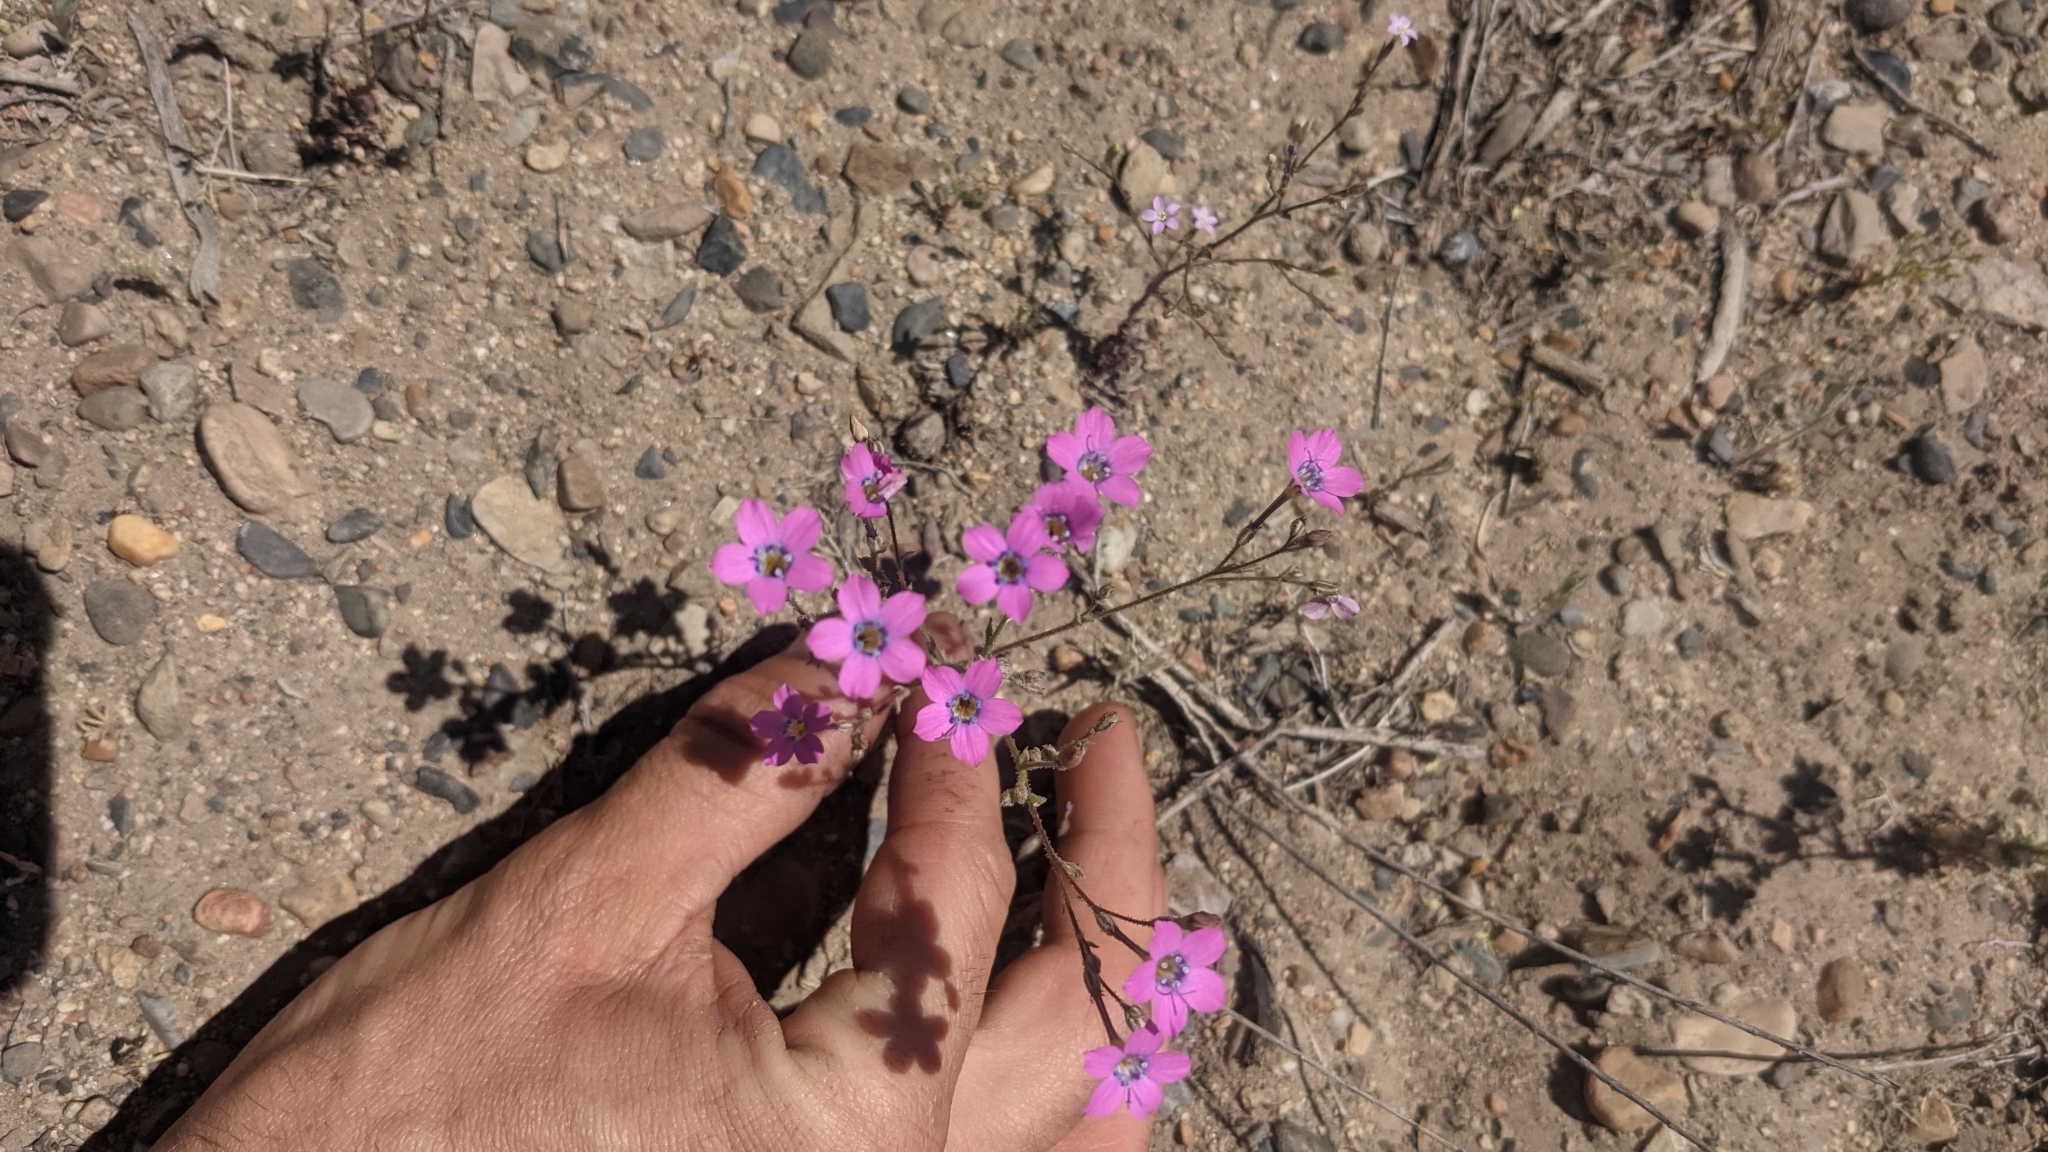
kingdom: Plantae
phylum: Tracheophyta
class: Magnoliopsida
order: Ericales
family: Polemoniaceae
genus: Gilia
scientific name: Gilia cana
